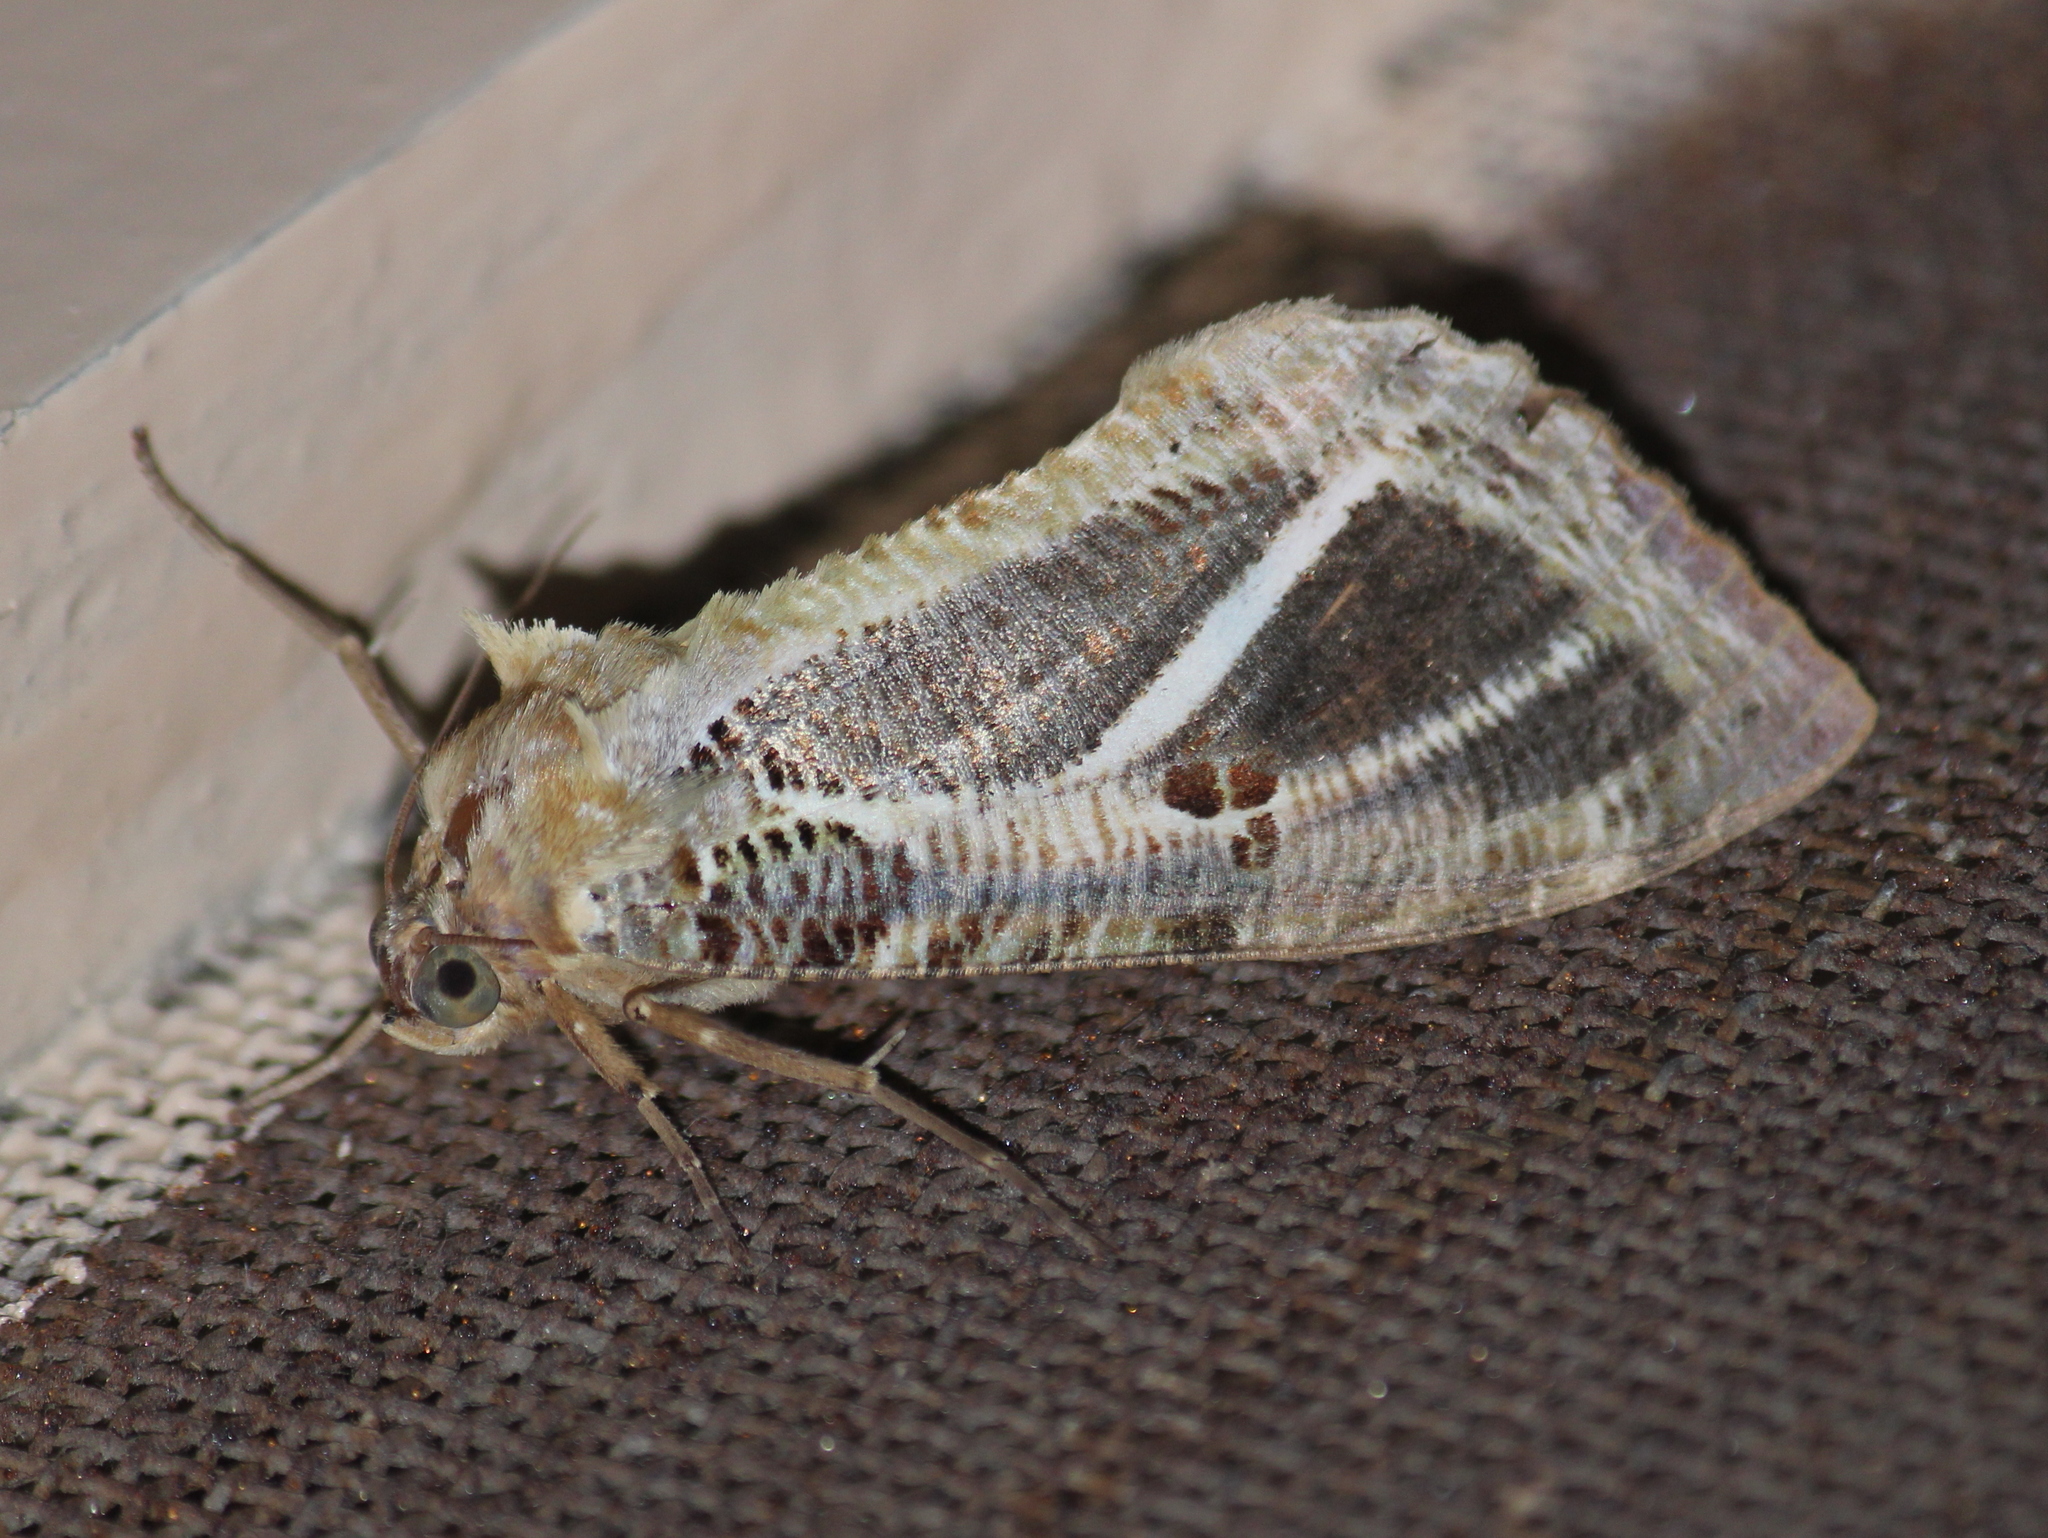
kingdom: Animalia
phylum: Arthropoda
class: Insecta
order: Lepidoptera
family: Erebidae
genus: Eudocima
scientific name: Eudocima materna
